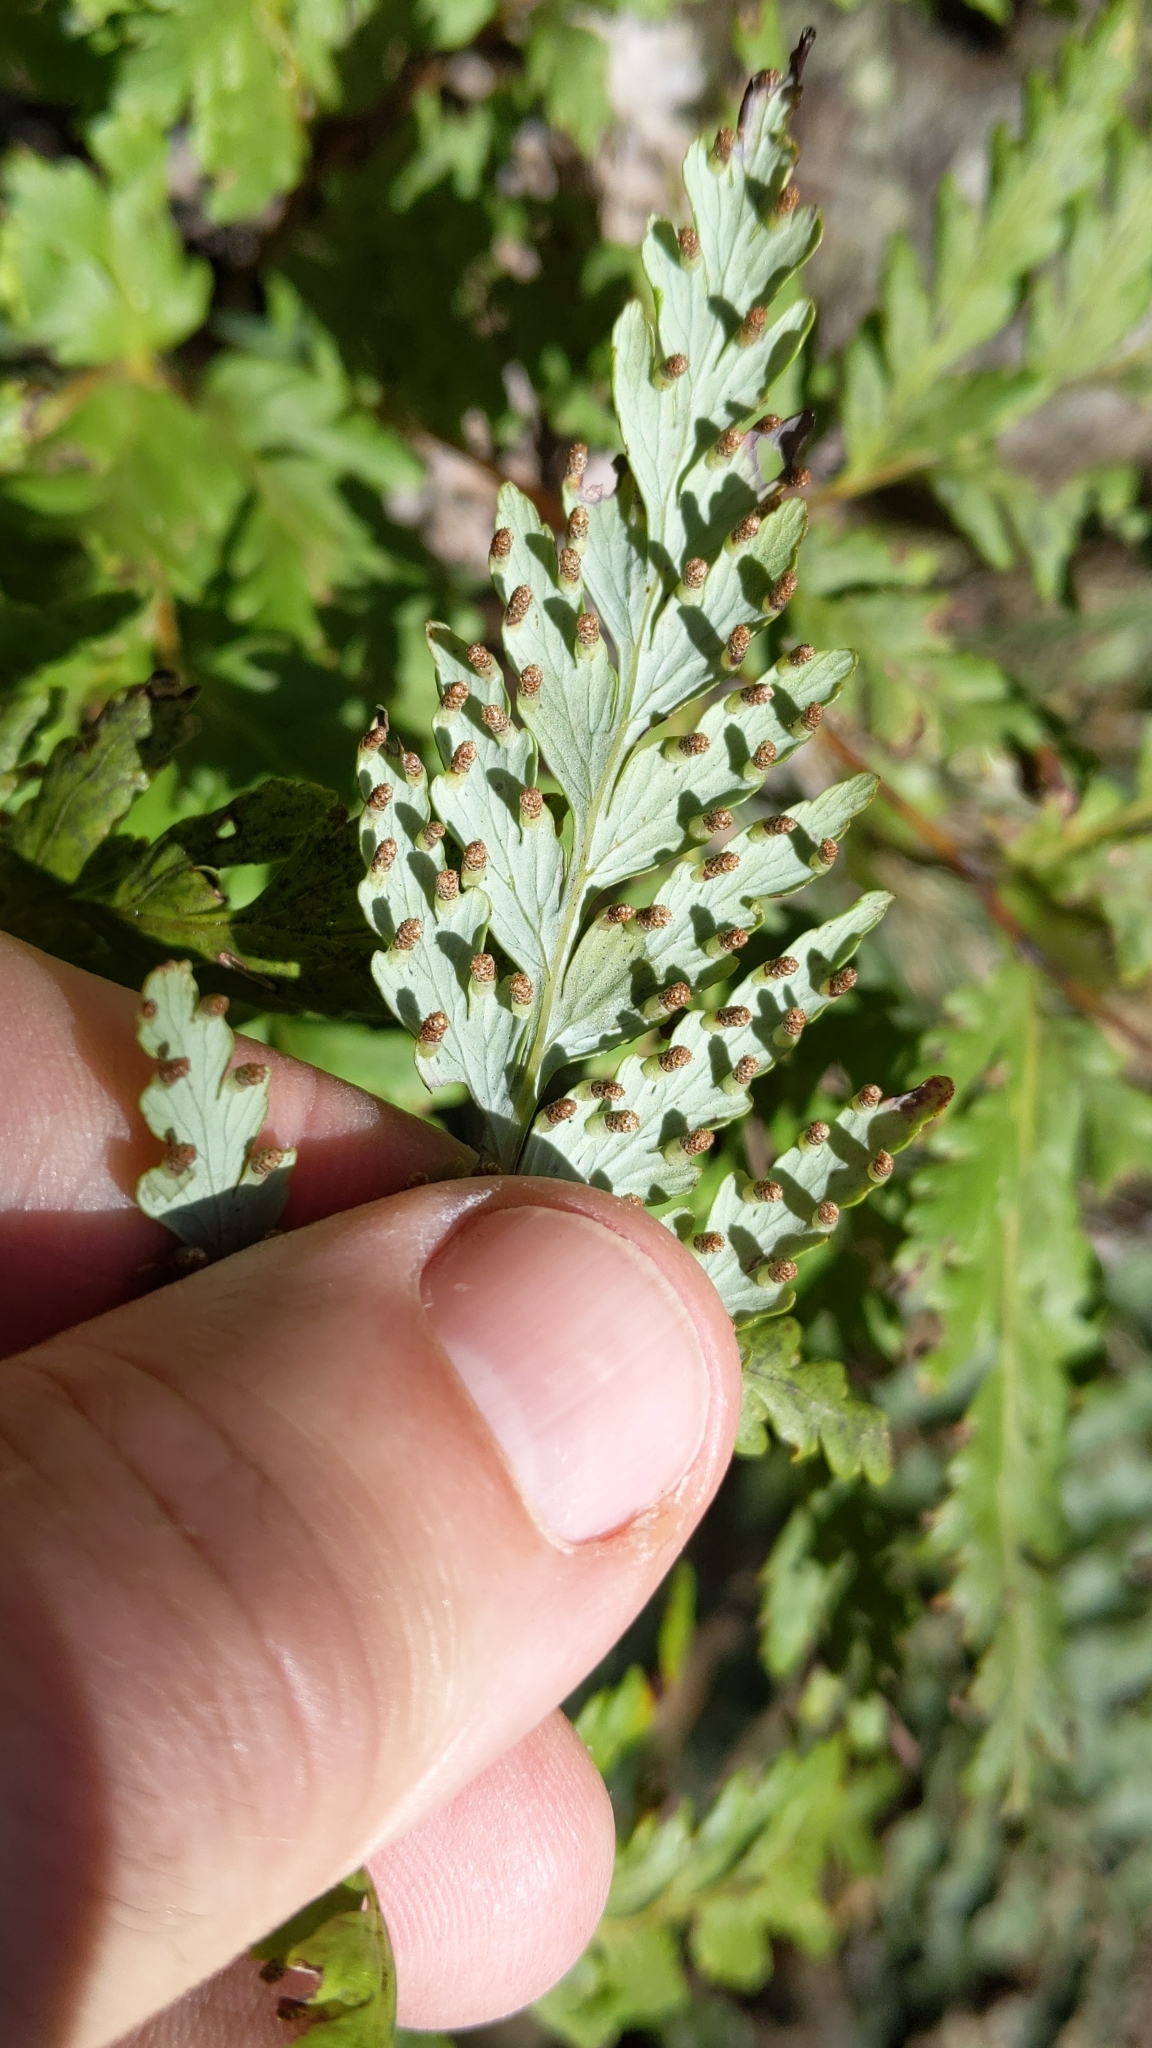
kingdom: Plantae
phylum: Tracheophyta
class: Polypodiopsida
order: Cyatheales
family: Loxsomataceae
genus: Loxsoma
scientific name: Loxsoma cunninghamii
